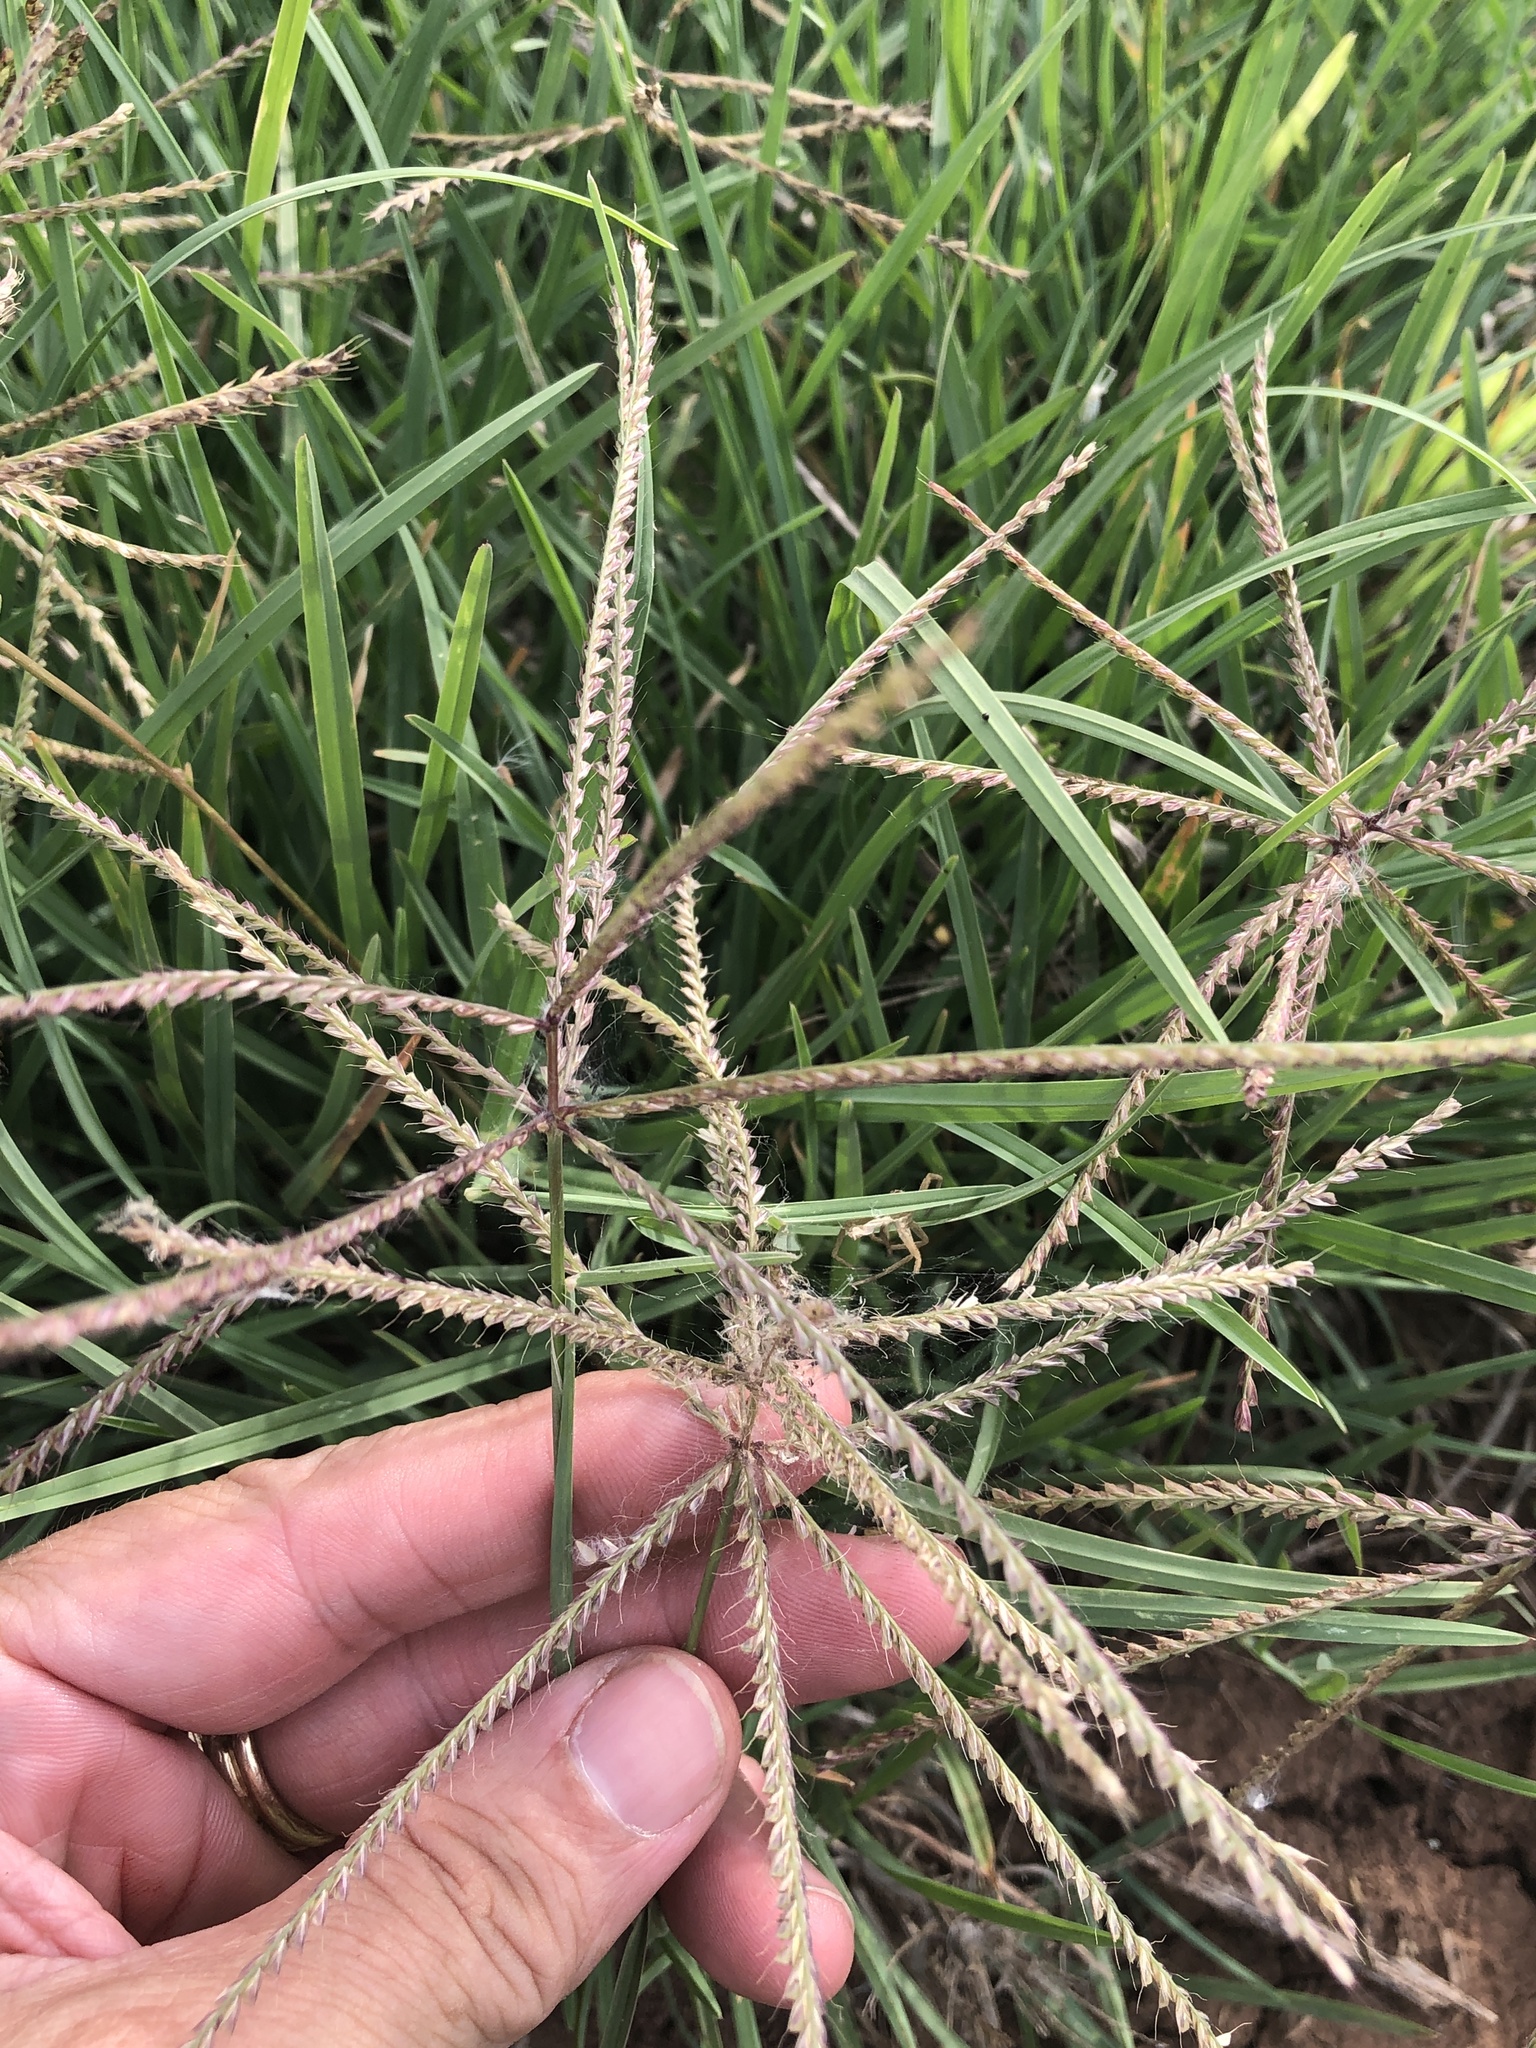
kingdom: Plantae
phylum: Tracheophyta
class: Liliopsida
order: Poales
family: Poaceae
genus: Chloris
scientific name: Chloris verticillata
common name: Tumble windmill grass
